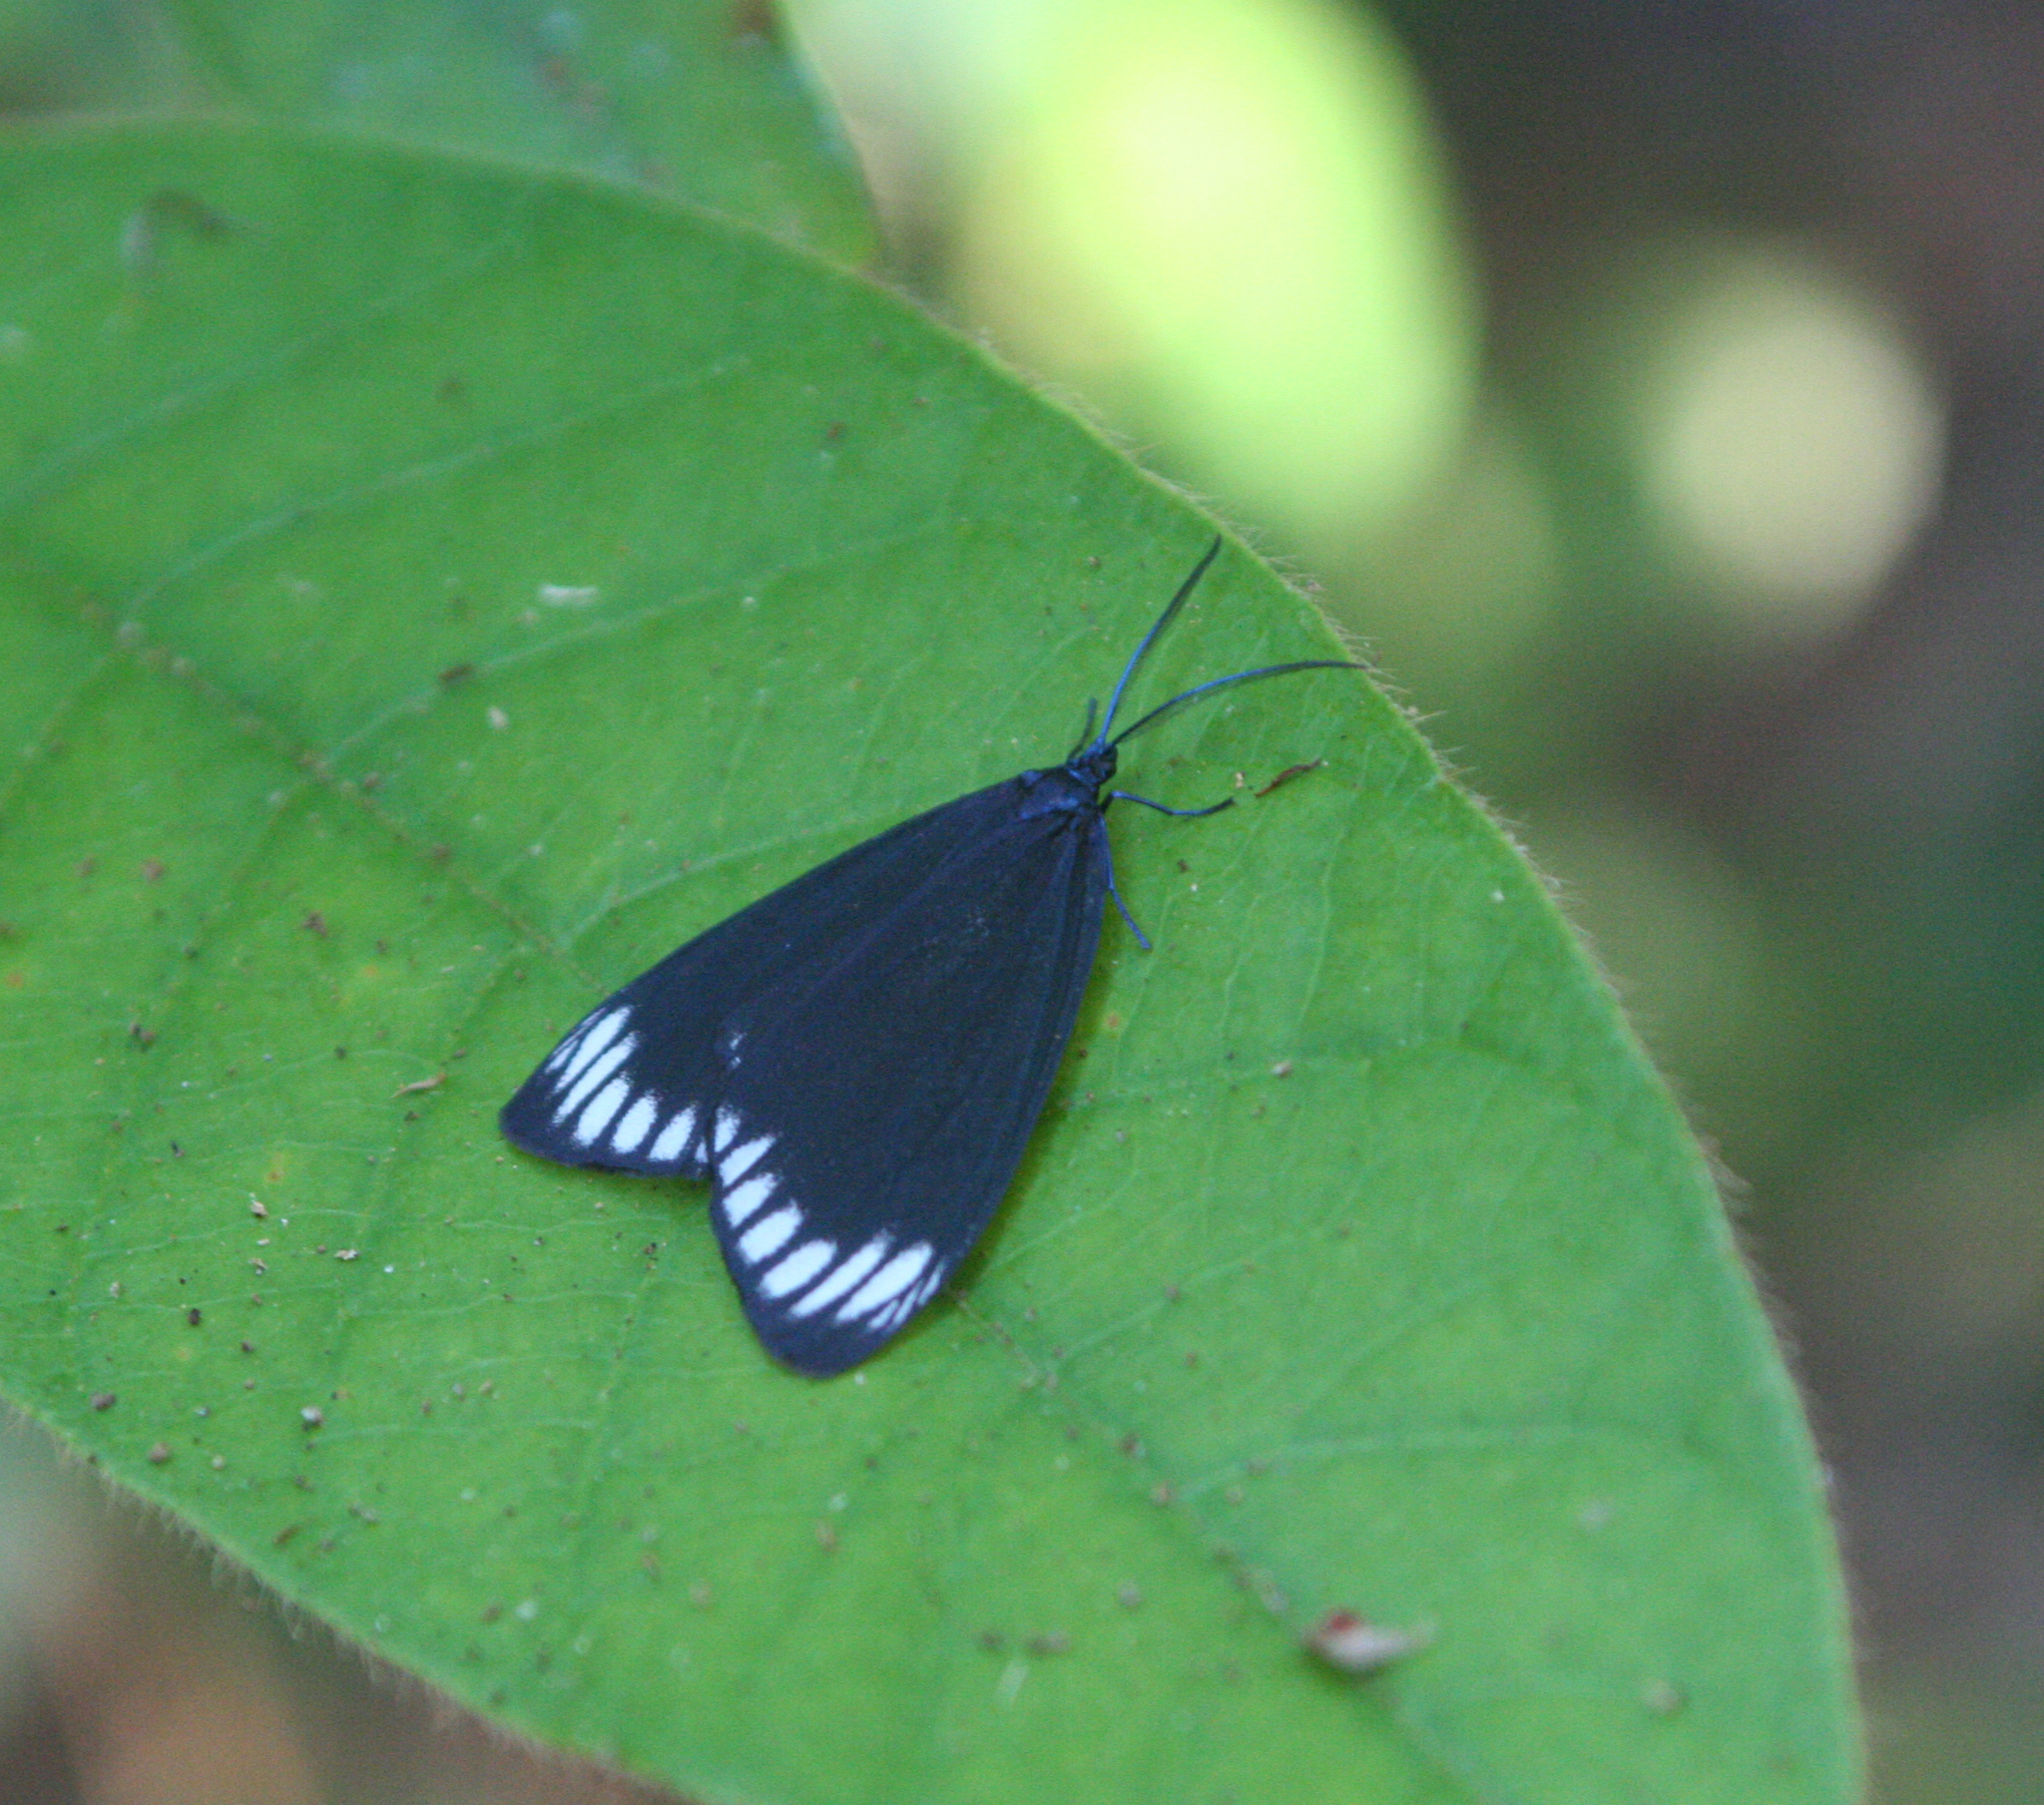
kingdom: Animalia
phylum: Arthropoda
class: Insecta
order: Lepidoptera
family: Zygaenidae
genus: Cyclosia
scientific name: Cyclosia panthona
